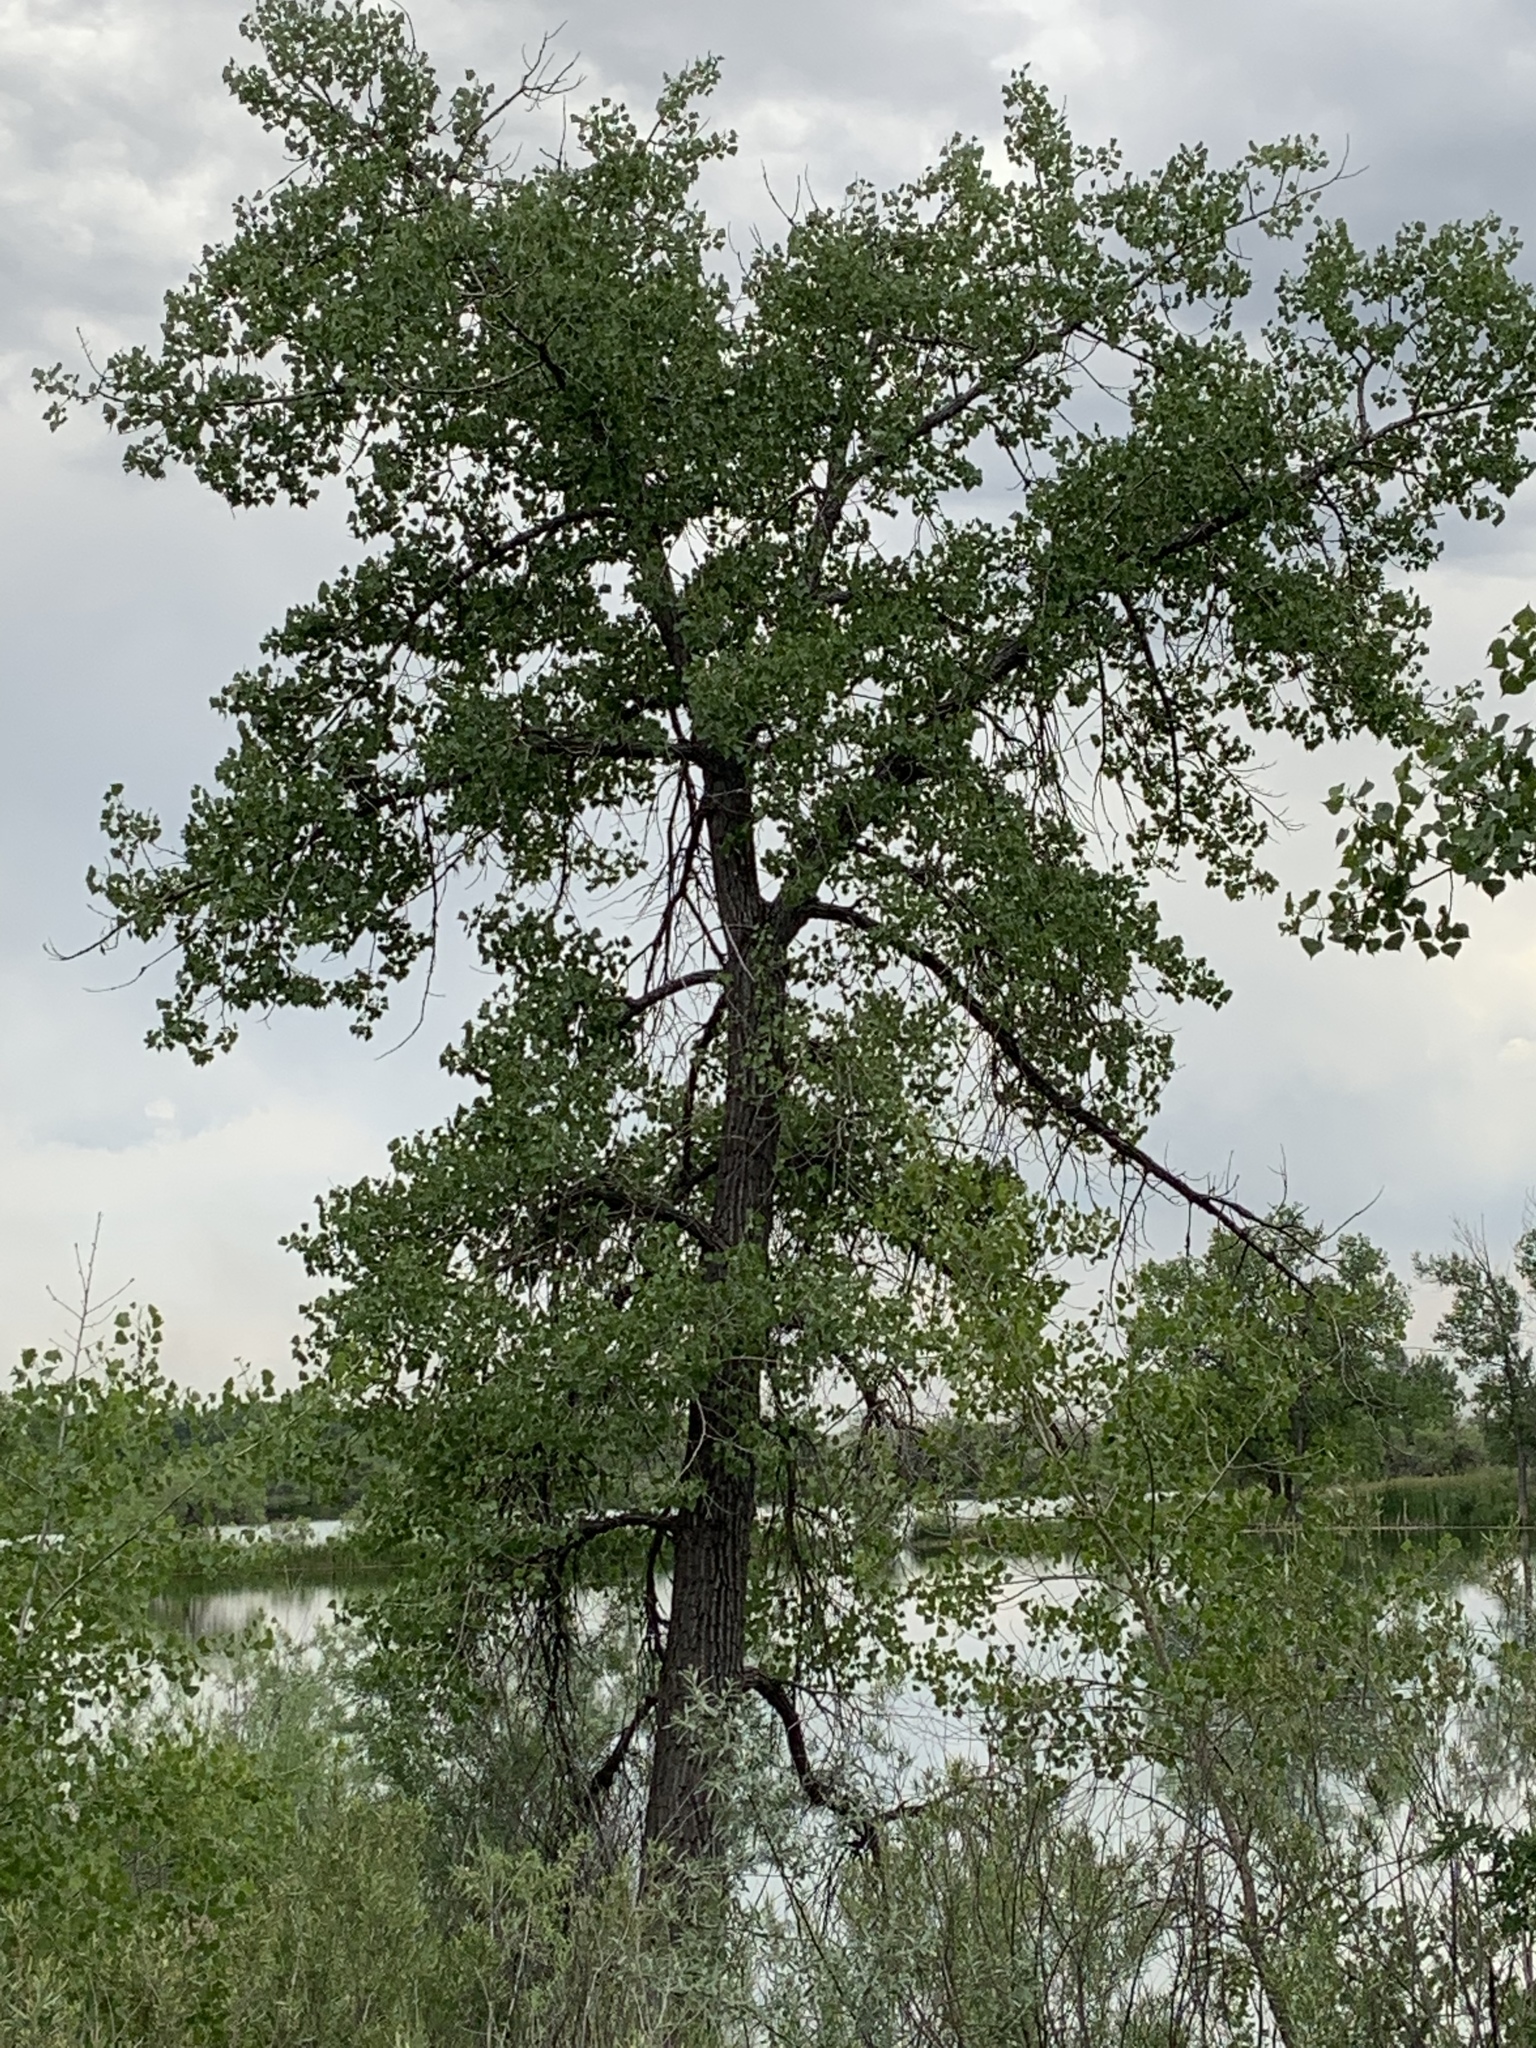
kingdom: Plantae
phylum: Tracheophyta
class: Magnoliopsida
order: Malpighiales
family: Salicaceae
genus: Populus
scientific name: Populus deltoides
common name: Eastern cottonwood
